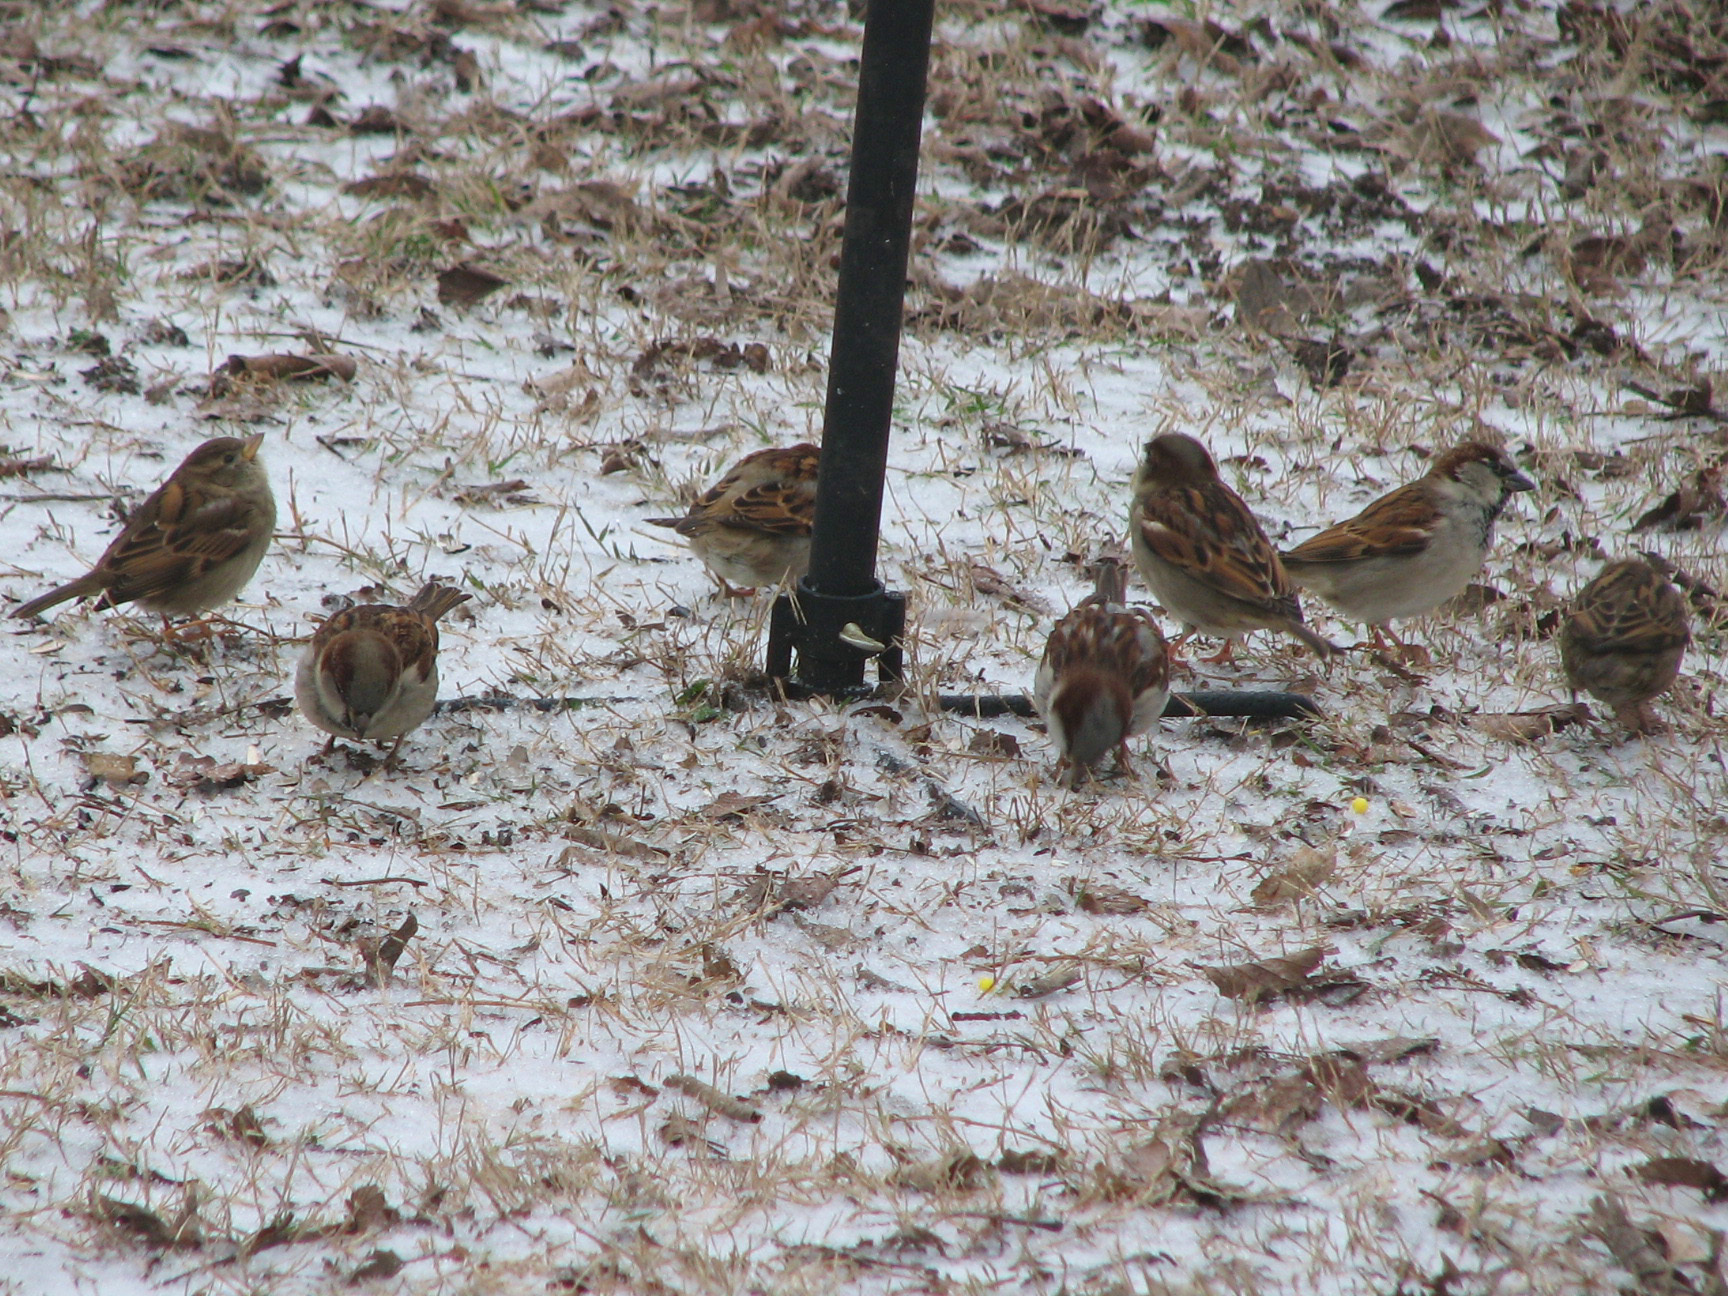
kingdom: Animalia
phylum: Chordata
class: Aves
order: Passeriformes
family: Passeridae
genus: Passer
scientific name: Passer domesticus
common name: House sparrow
